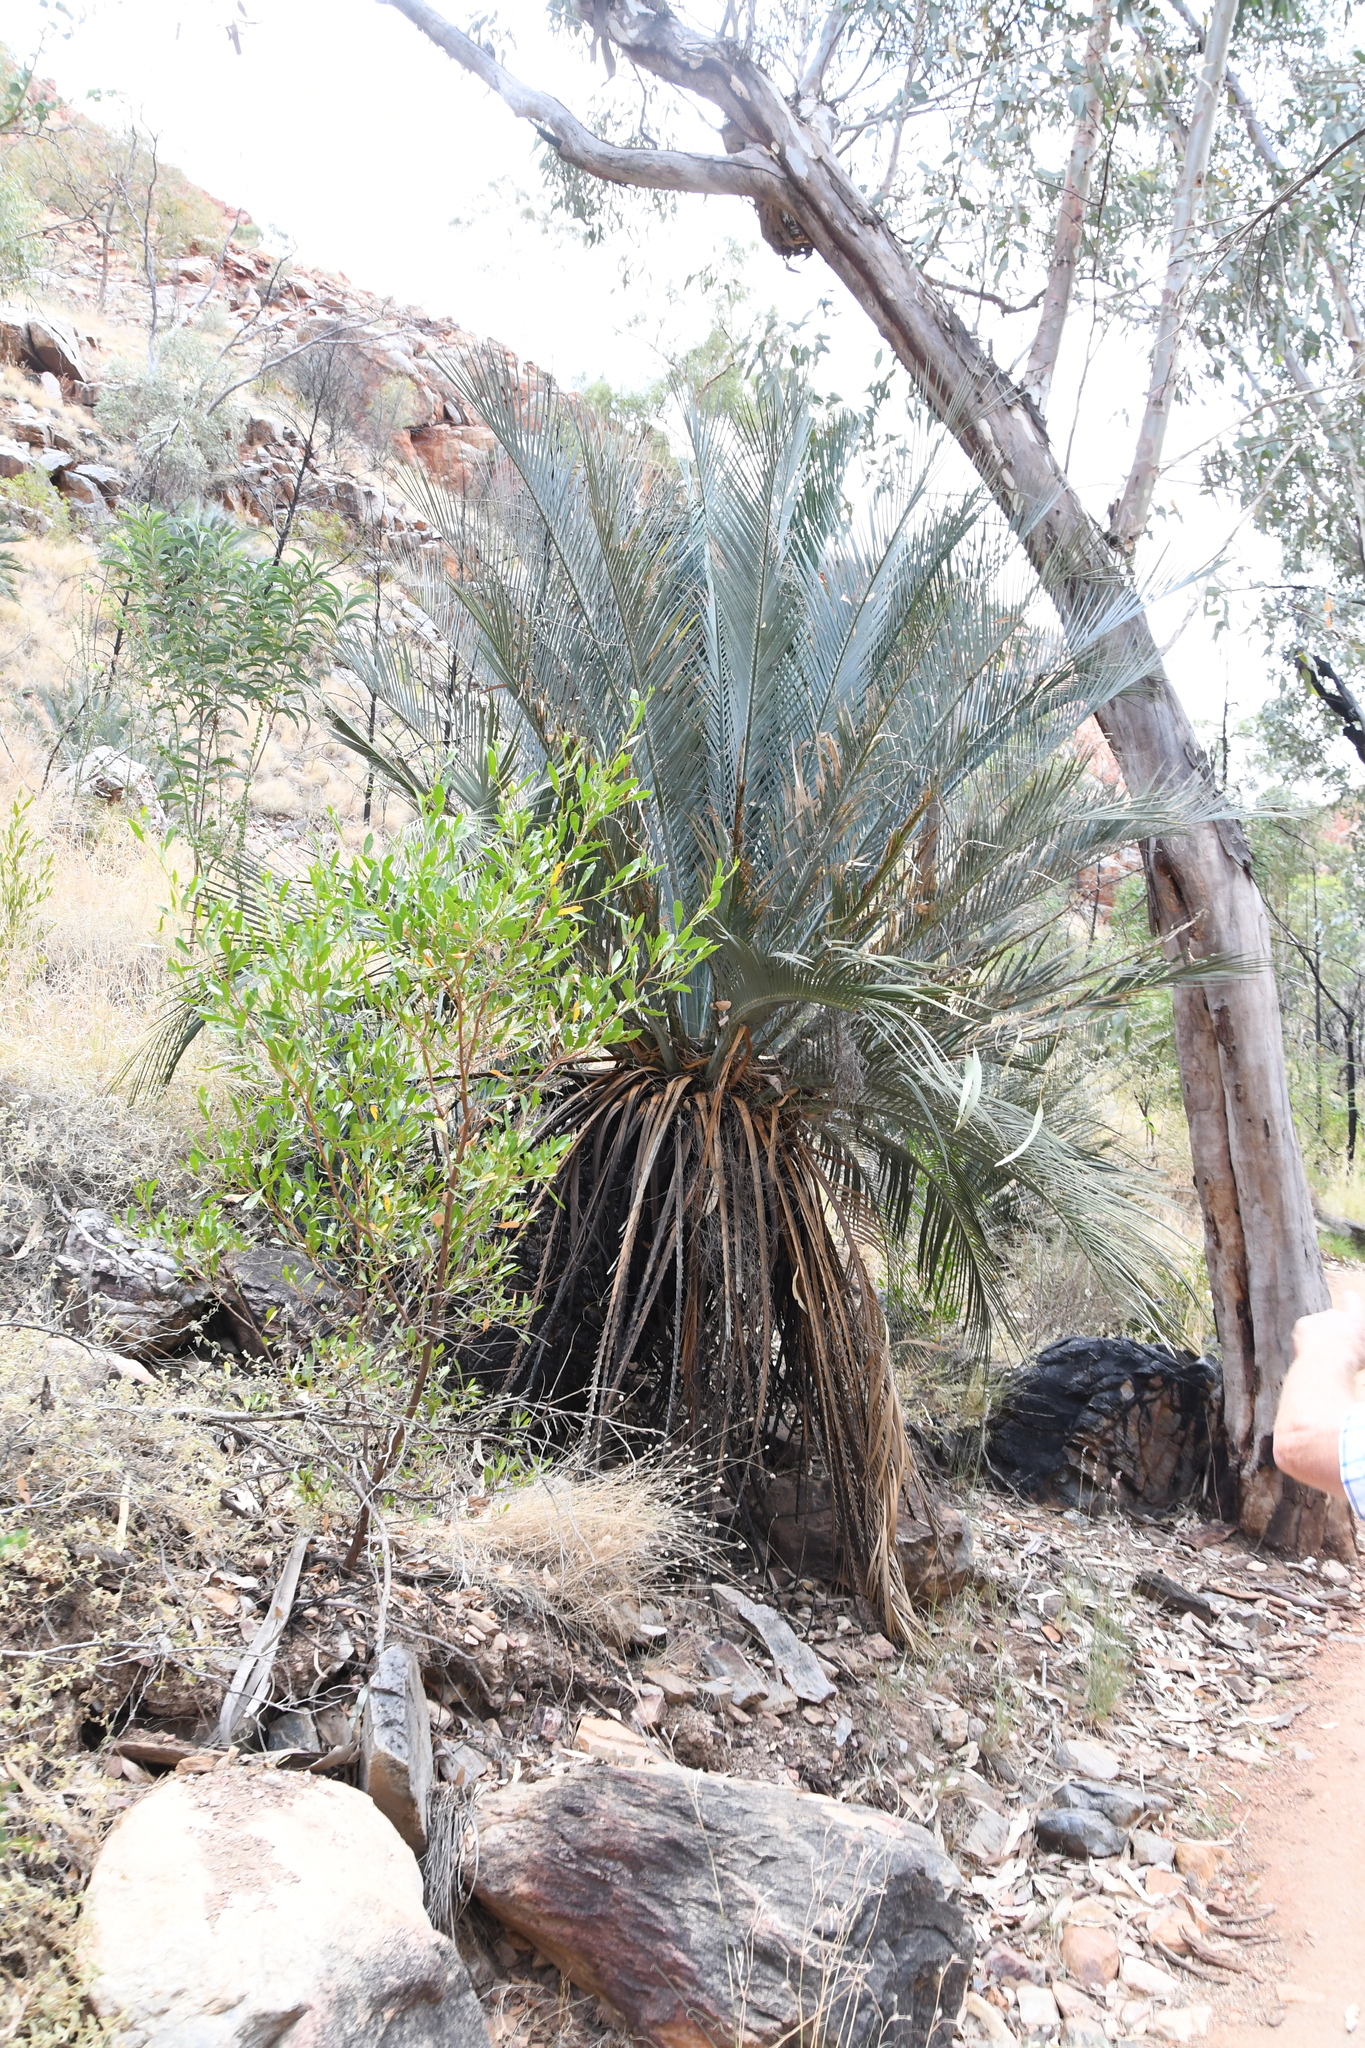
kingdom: Plantae
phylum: Tracheophyta
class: Cycadopsida
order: Cycadales
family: Zamiaceae
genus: Macrozamia
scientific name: Macrozamia macdonnellii
